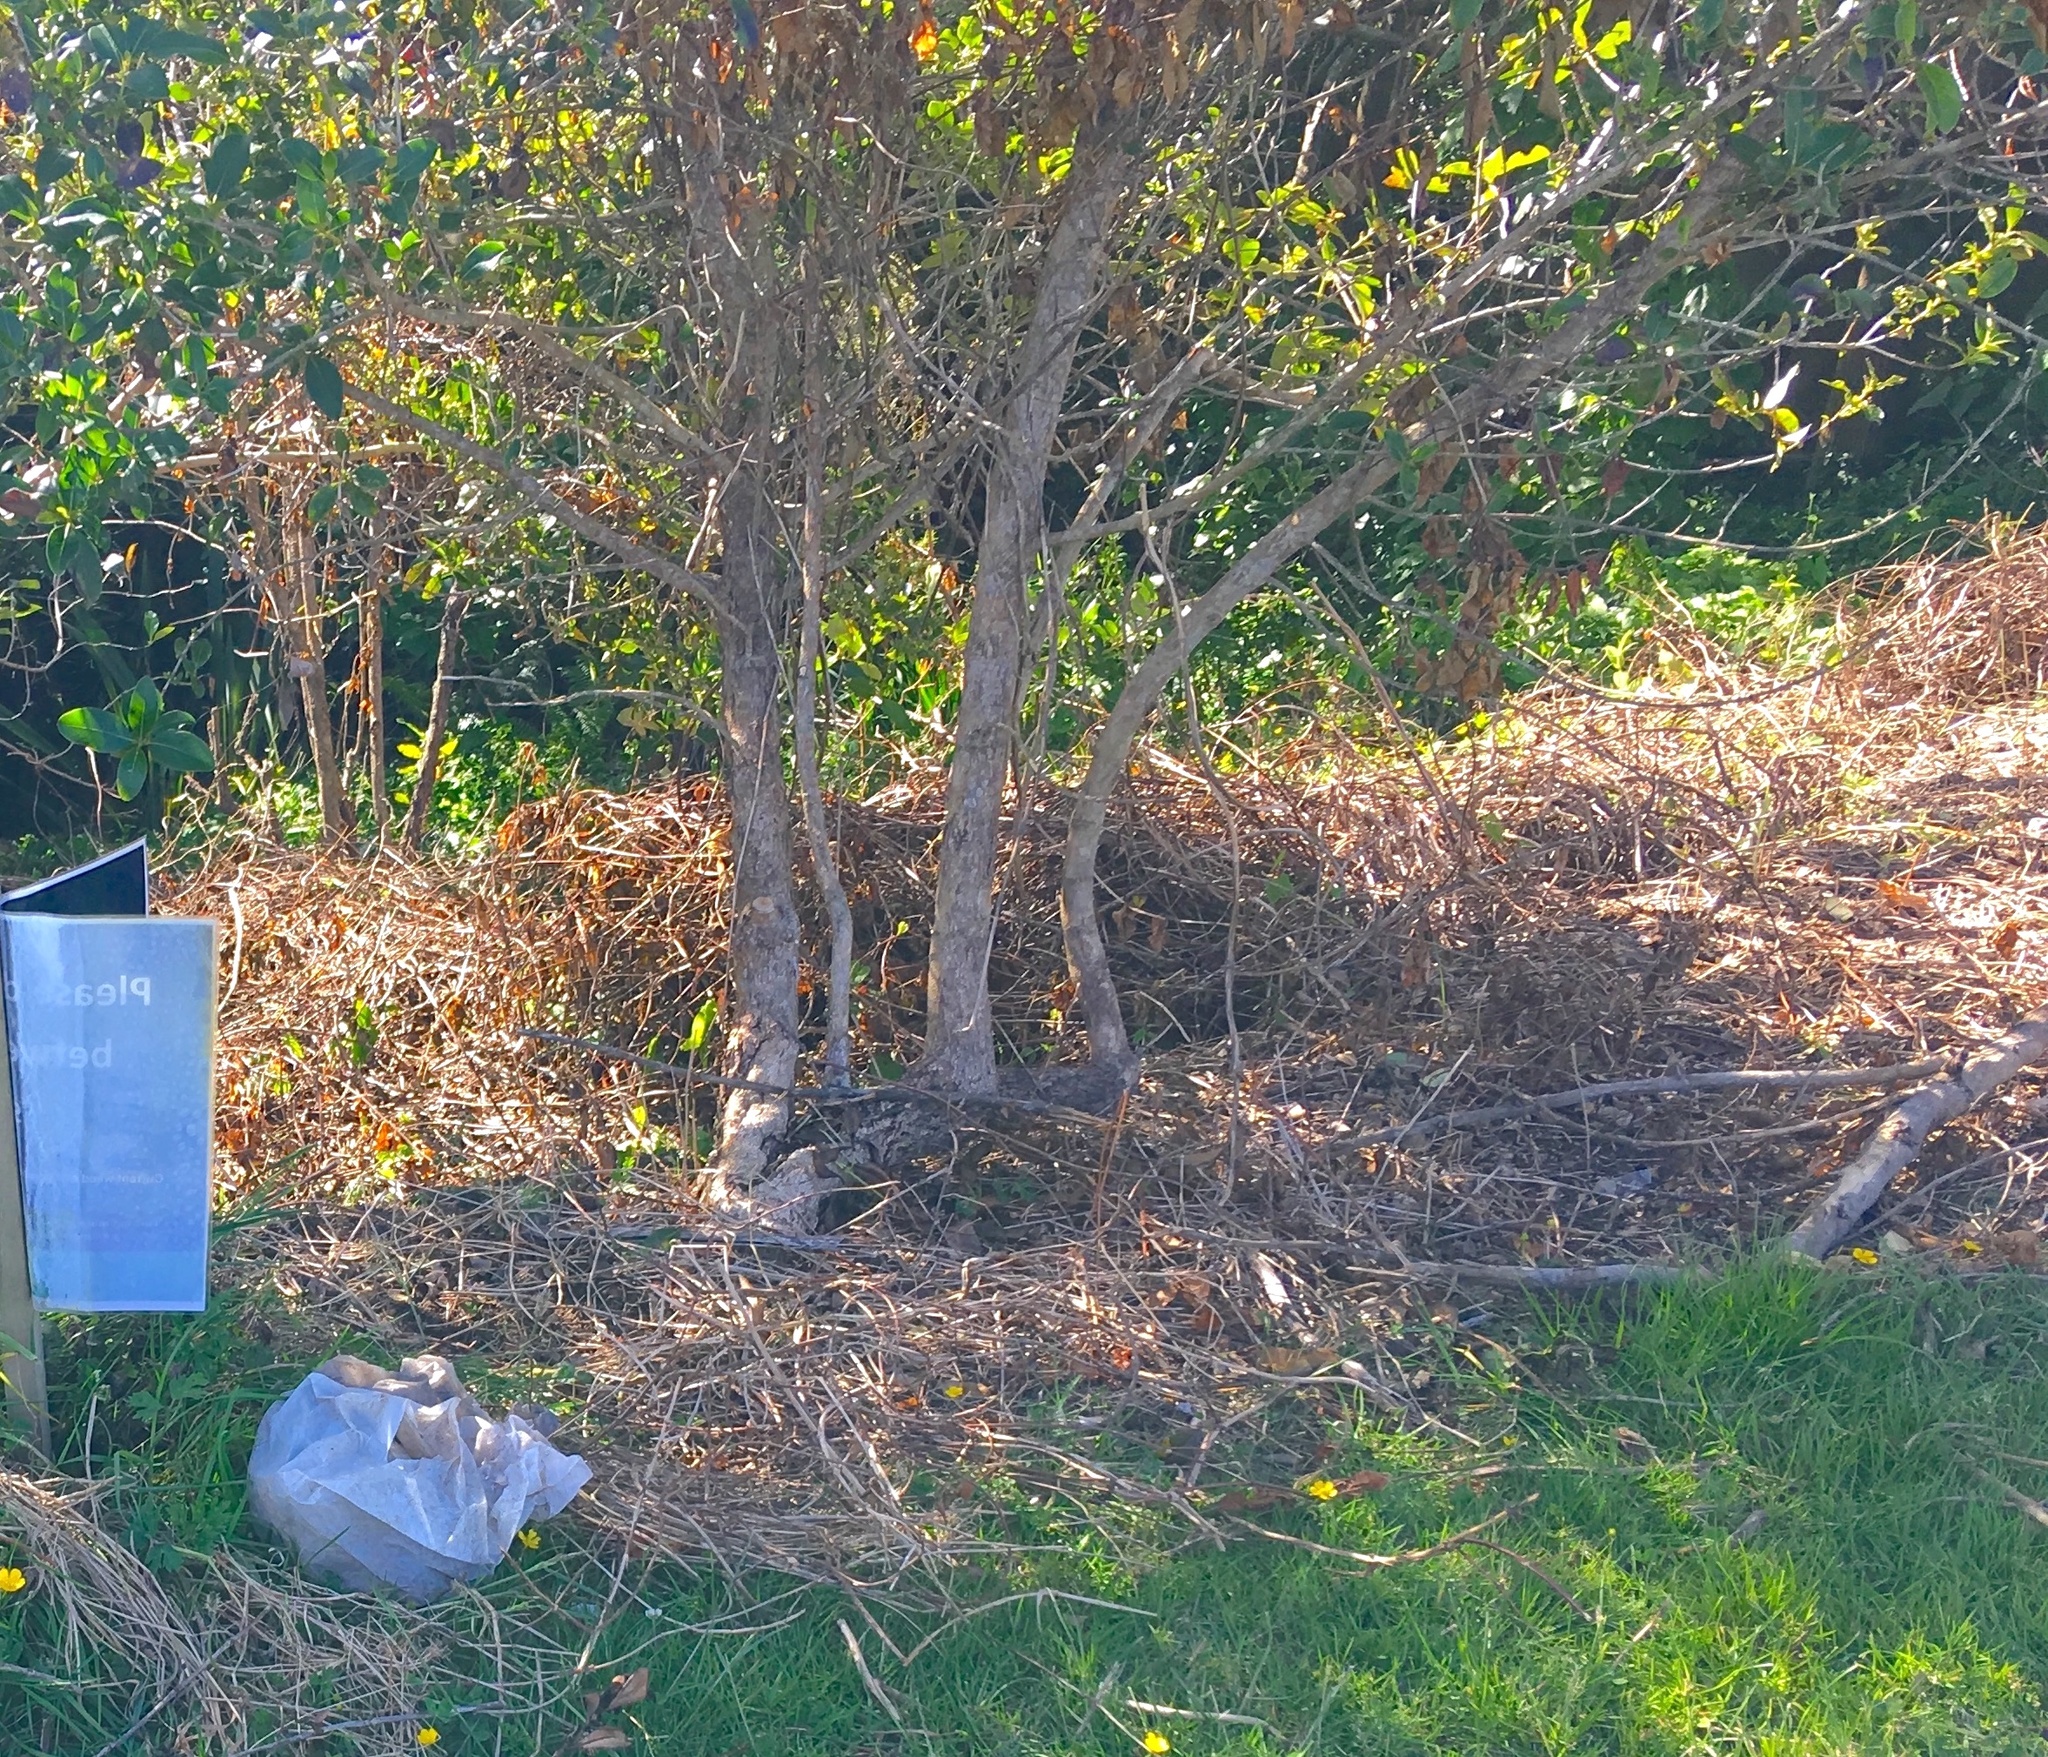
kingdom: Plantae
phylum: Tracheophyta
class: Magnoliopsida
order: Gentianales
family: Rubiaceae
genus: Coprosma
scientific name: Coprosma robusta
